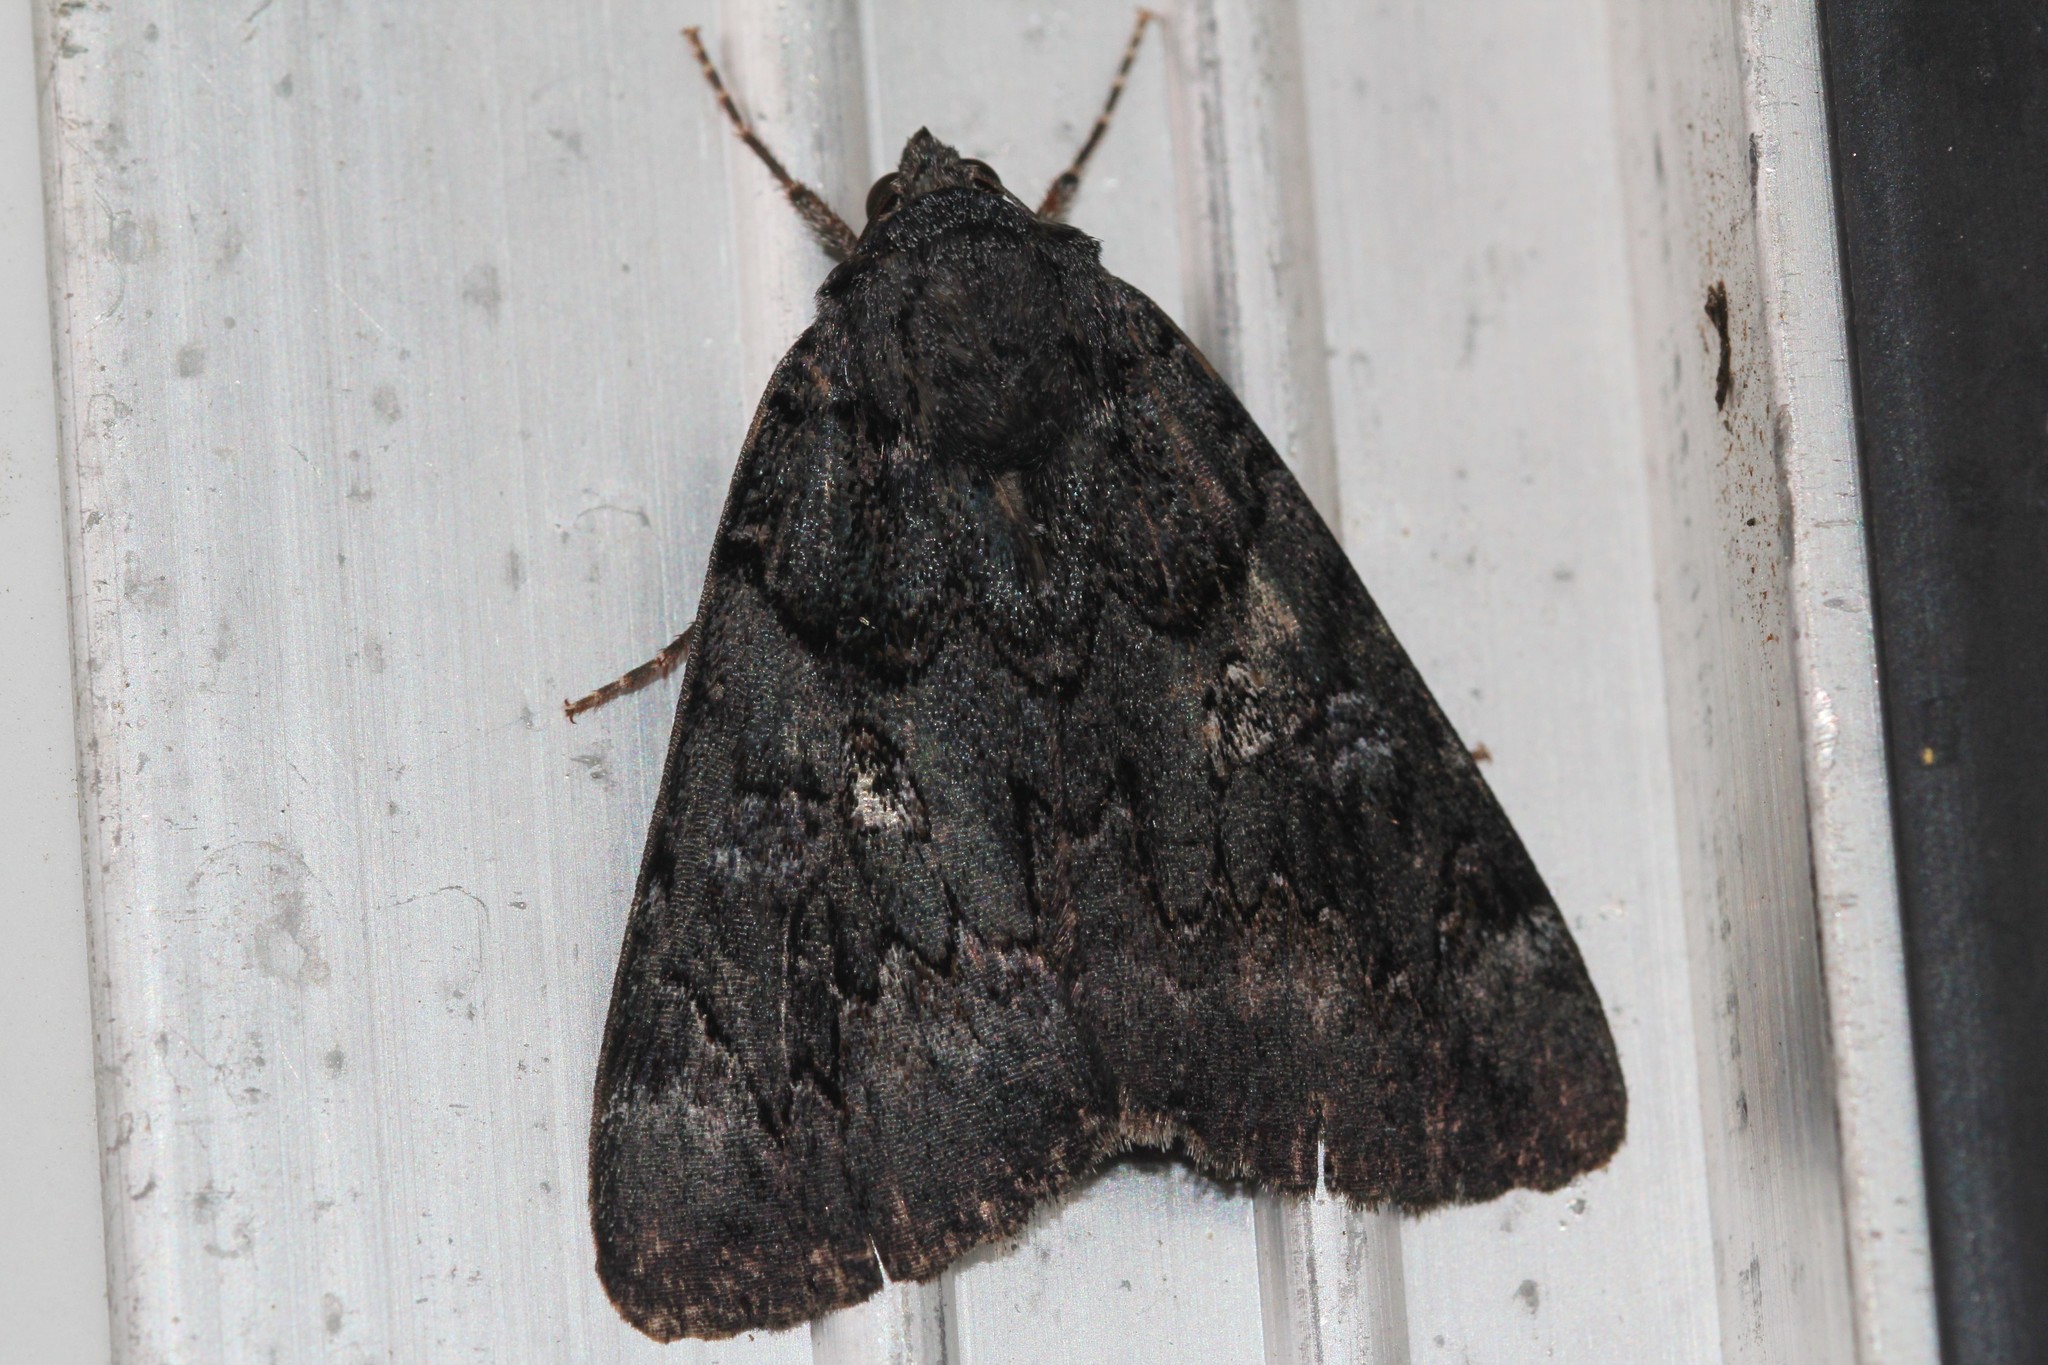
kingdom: Animalia
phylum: Arthropoda
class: Insecta
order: Lepidoptera
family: Erebidae
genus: Catocala
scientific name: Catocala antinympha
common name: Sweetfern underwing
